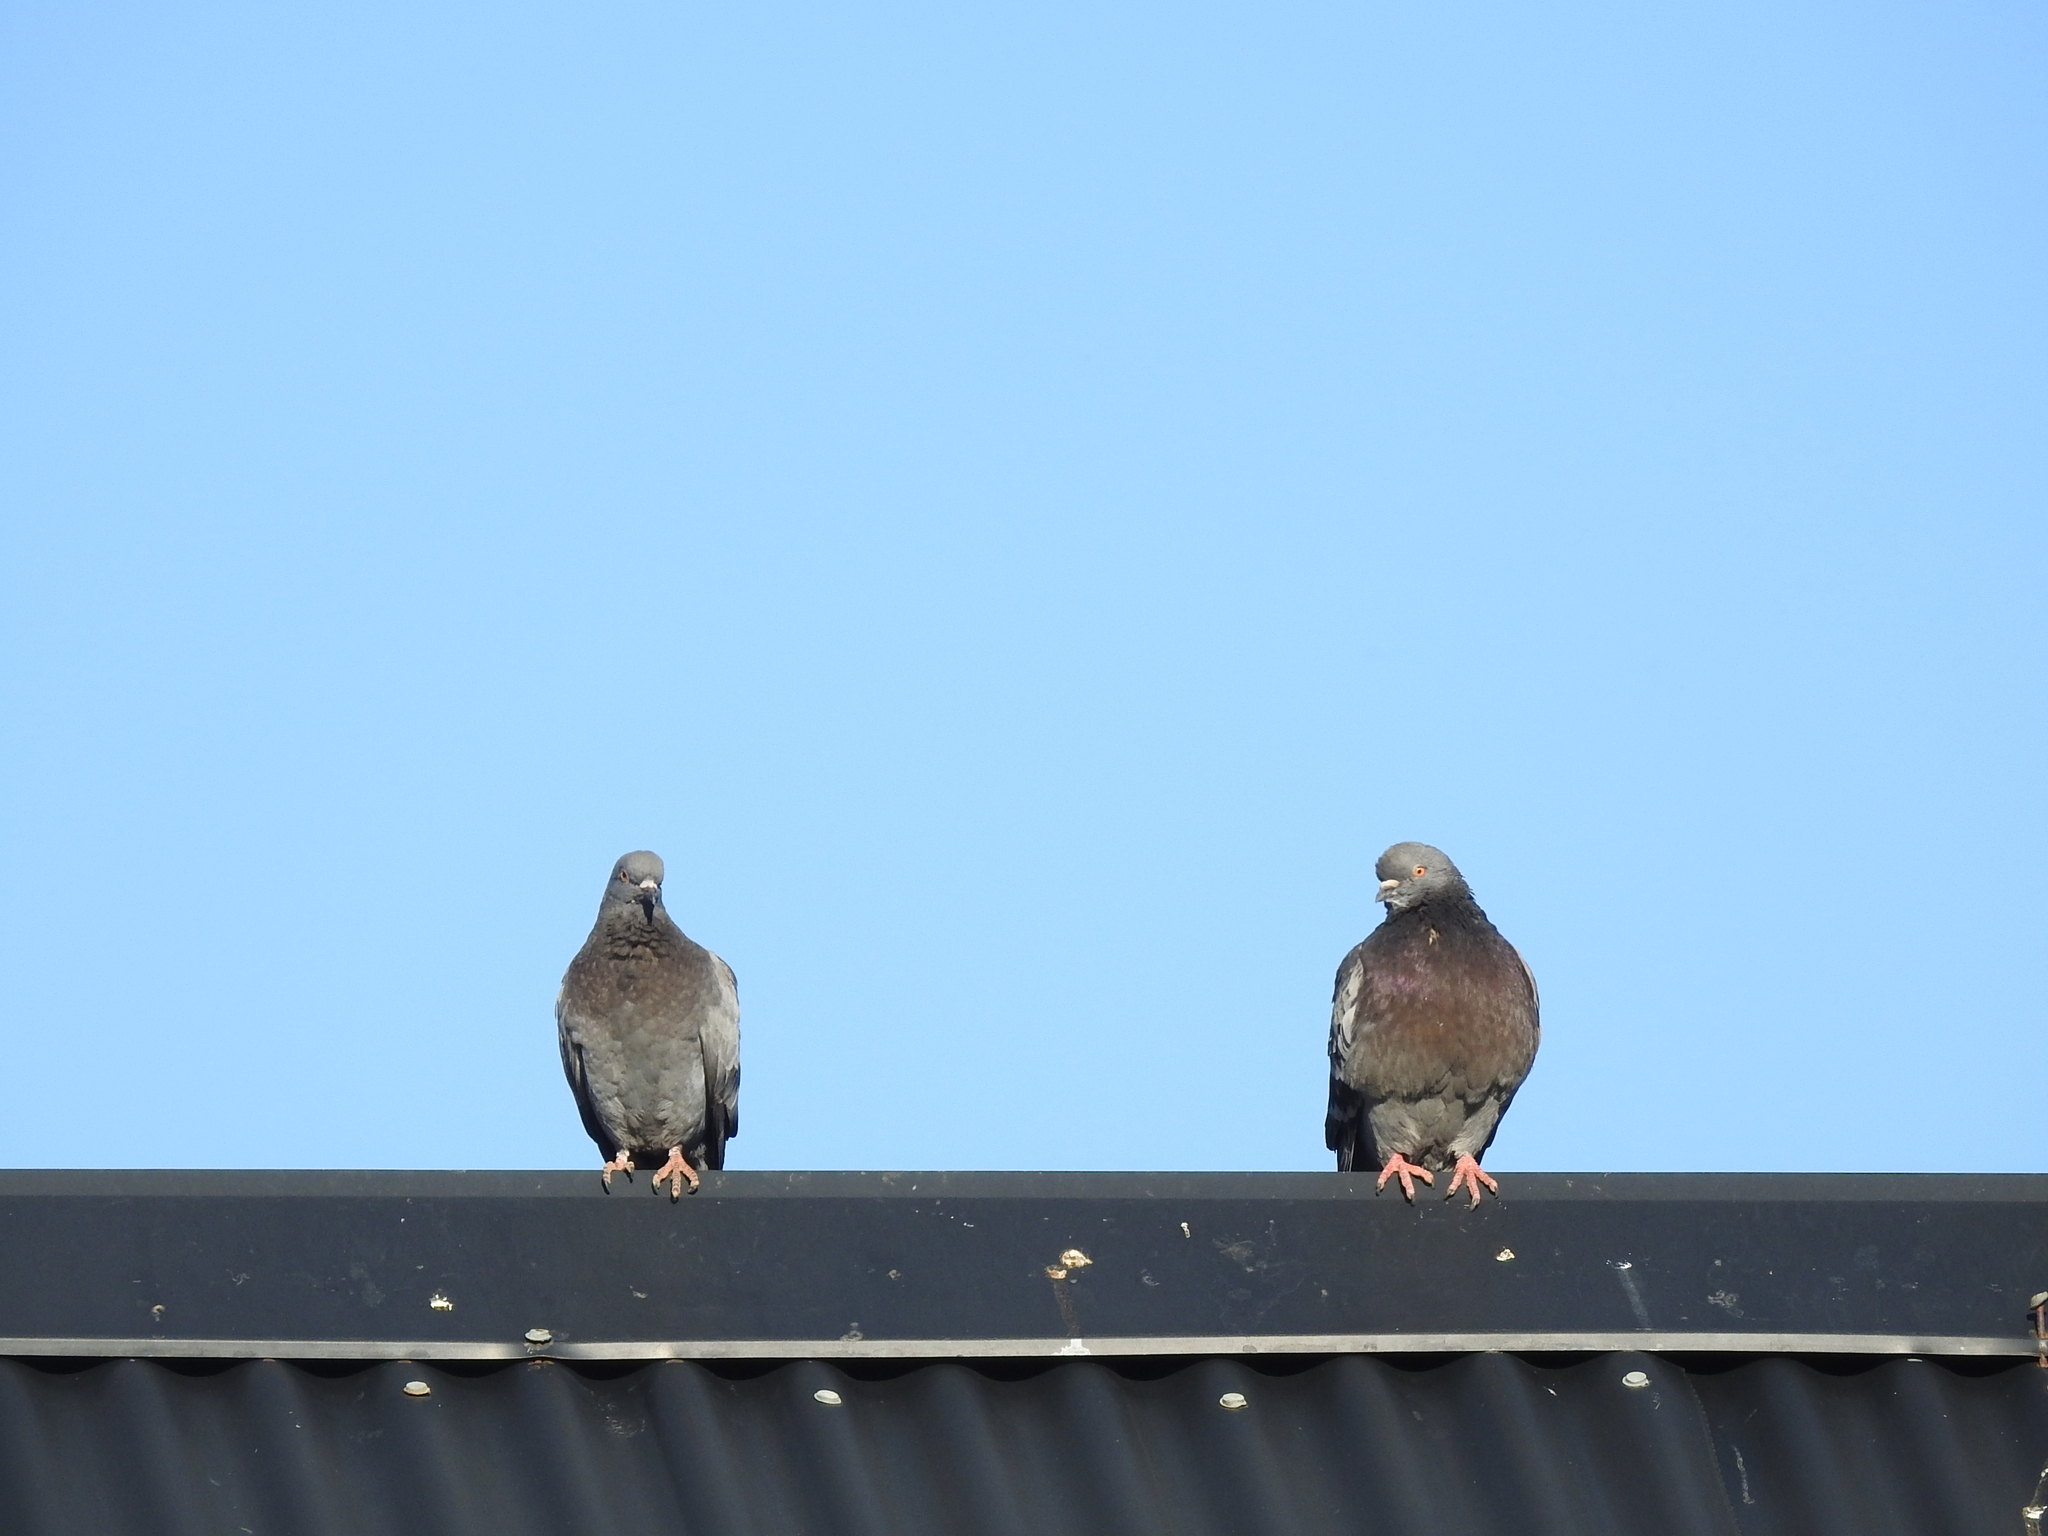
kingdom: Animalia
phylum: Chordata
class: Aves
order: Columbiformes
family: Columbidae
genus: Columba
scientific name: Columba livia
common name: Rock pigeon
